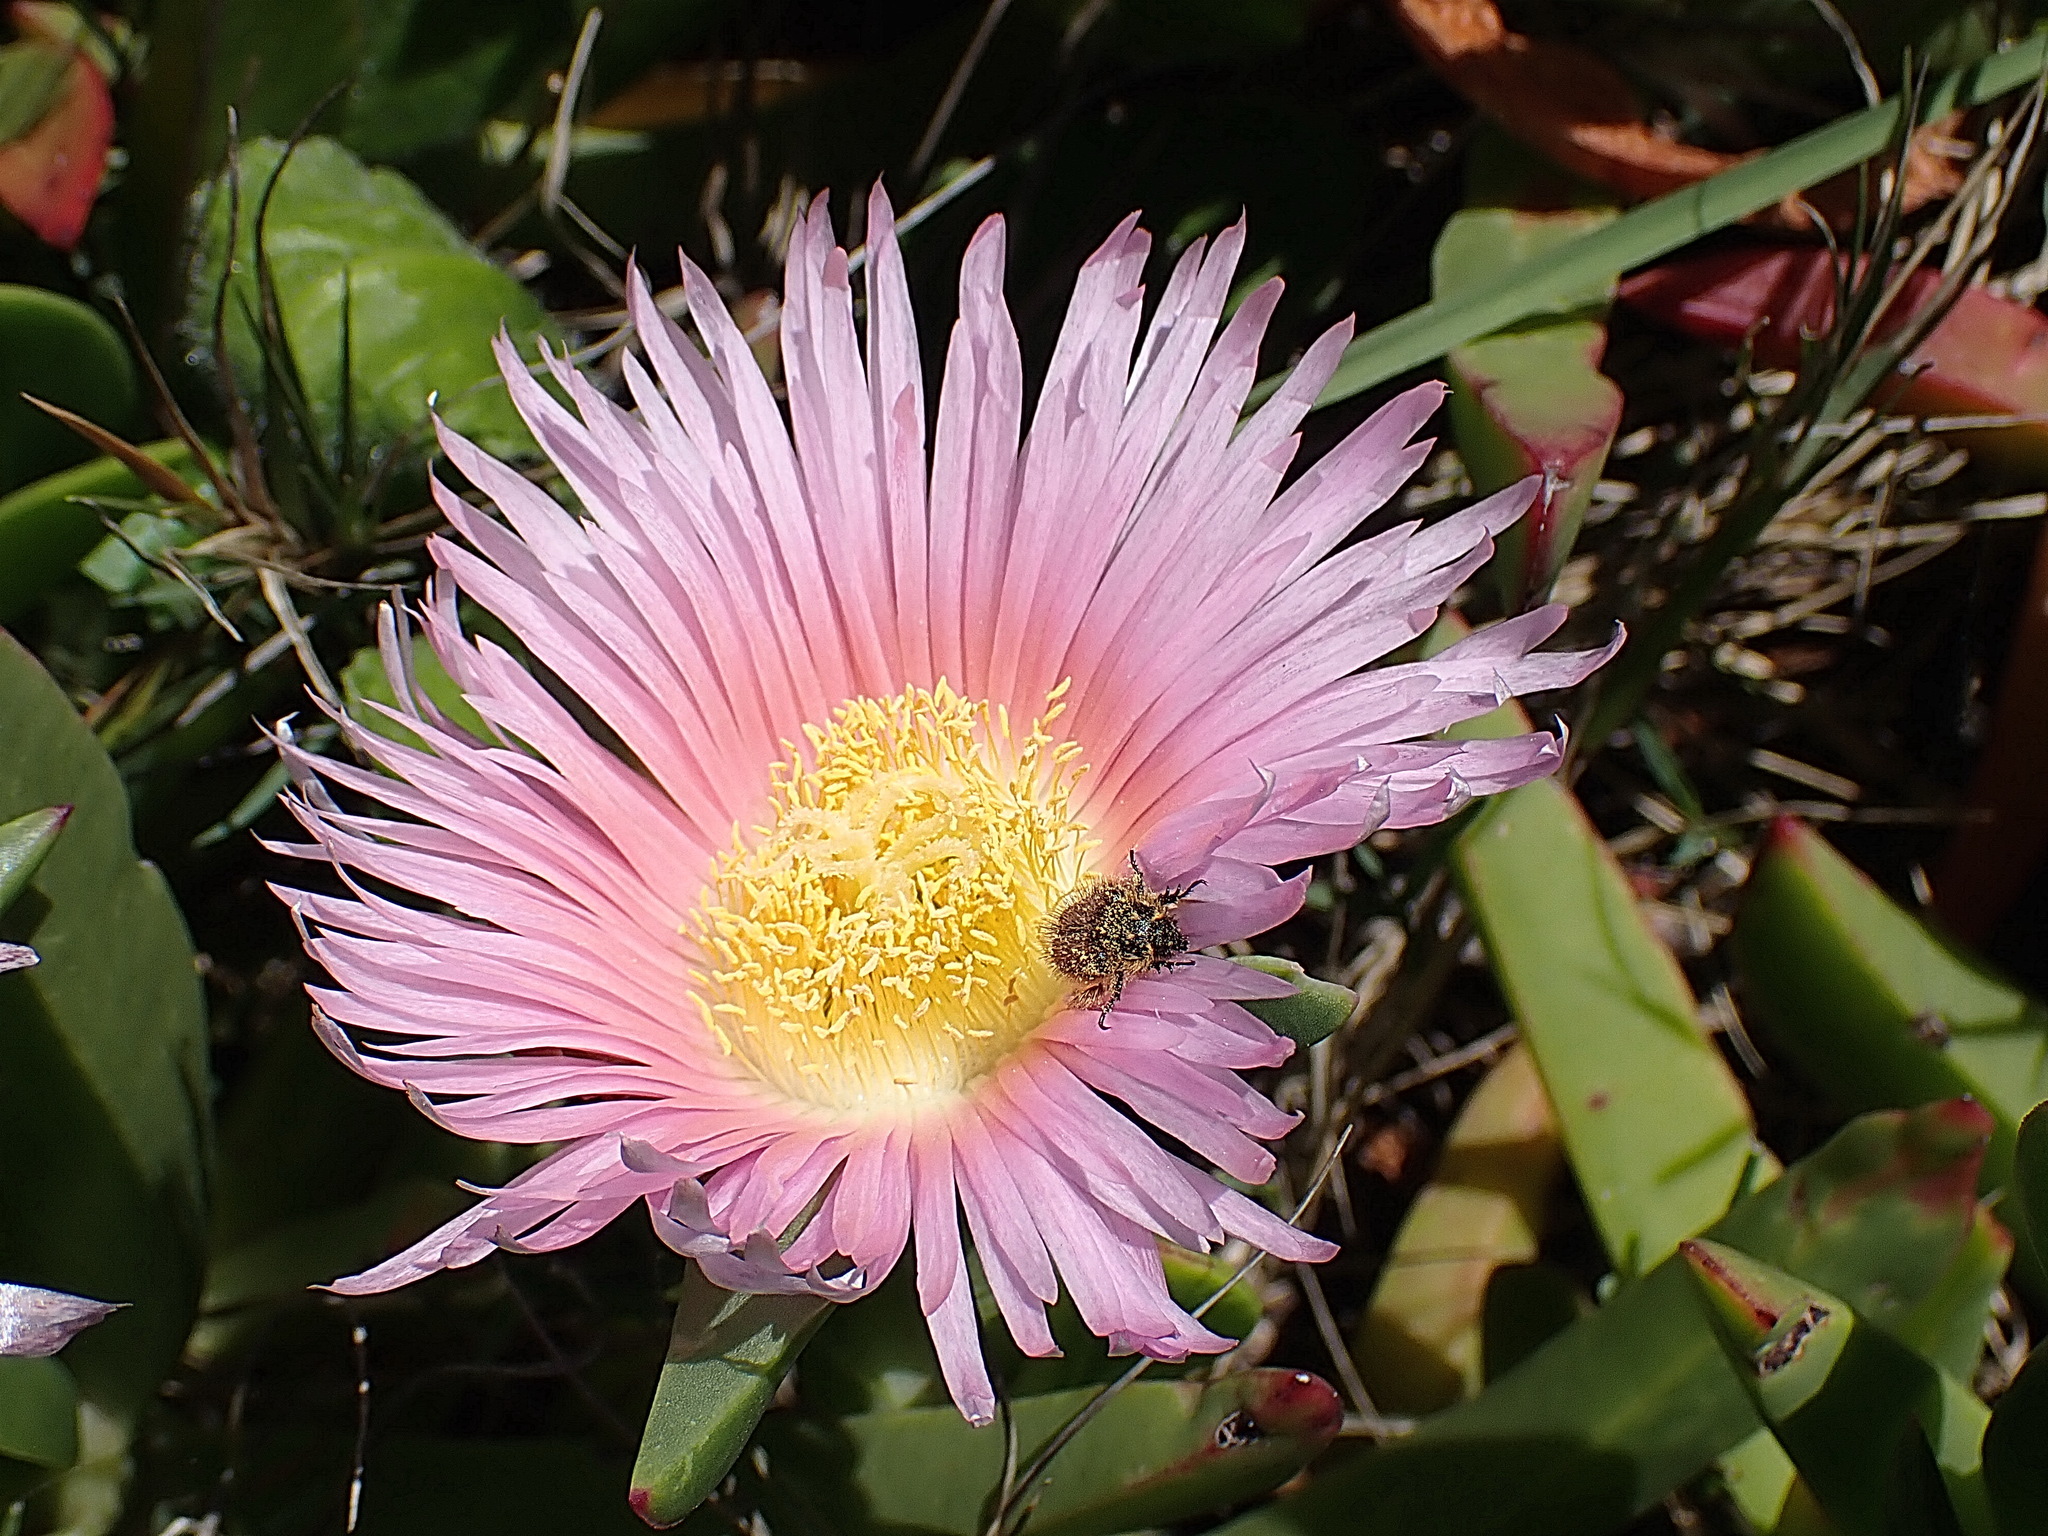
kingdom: Plantae
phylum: Tracheophyta
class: Magnoliopsida
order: Caryophyllales
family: Aizoaceae
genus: Carpobrotus
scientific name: Carpobrotus mellei
